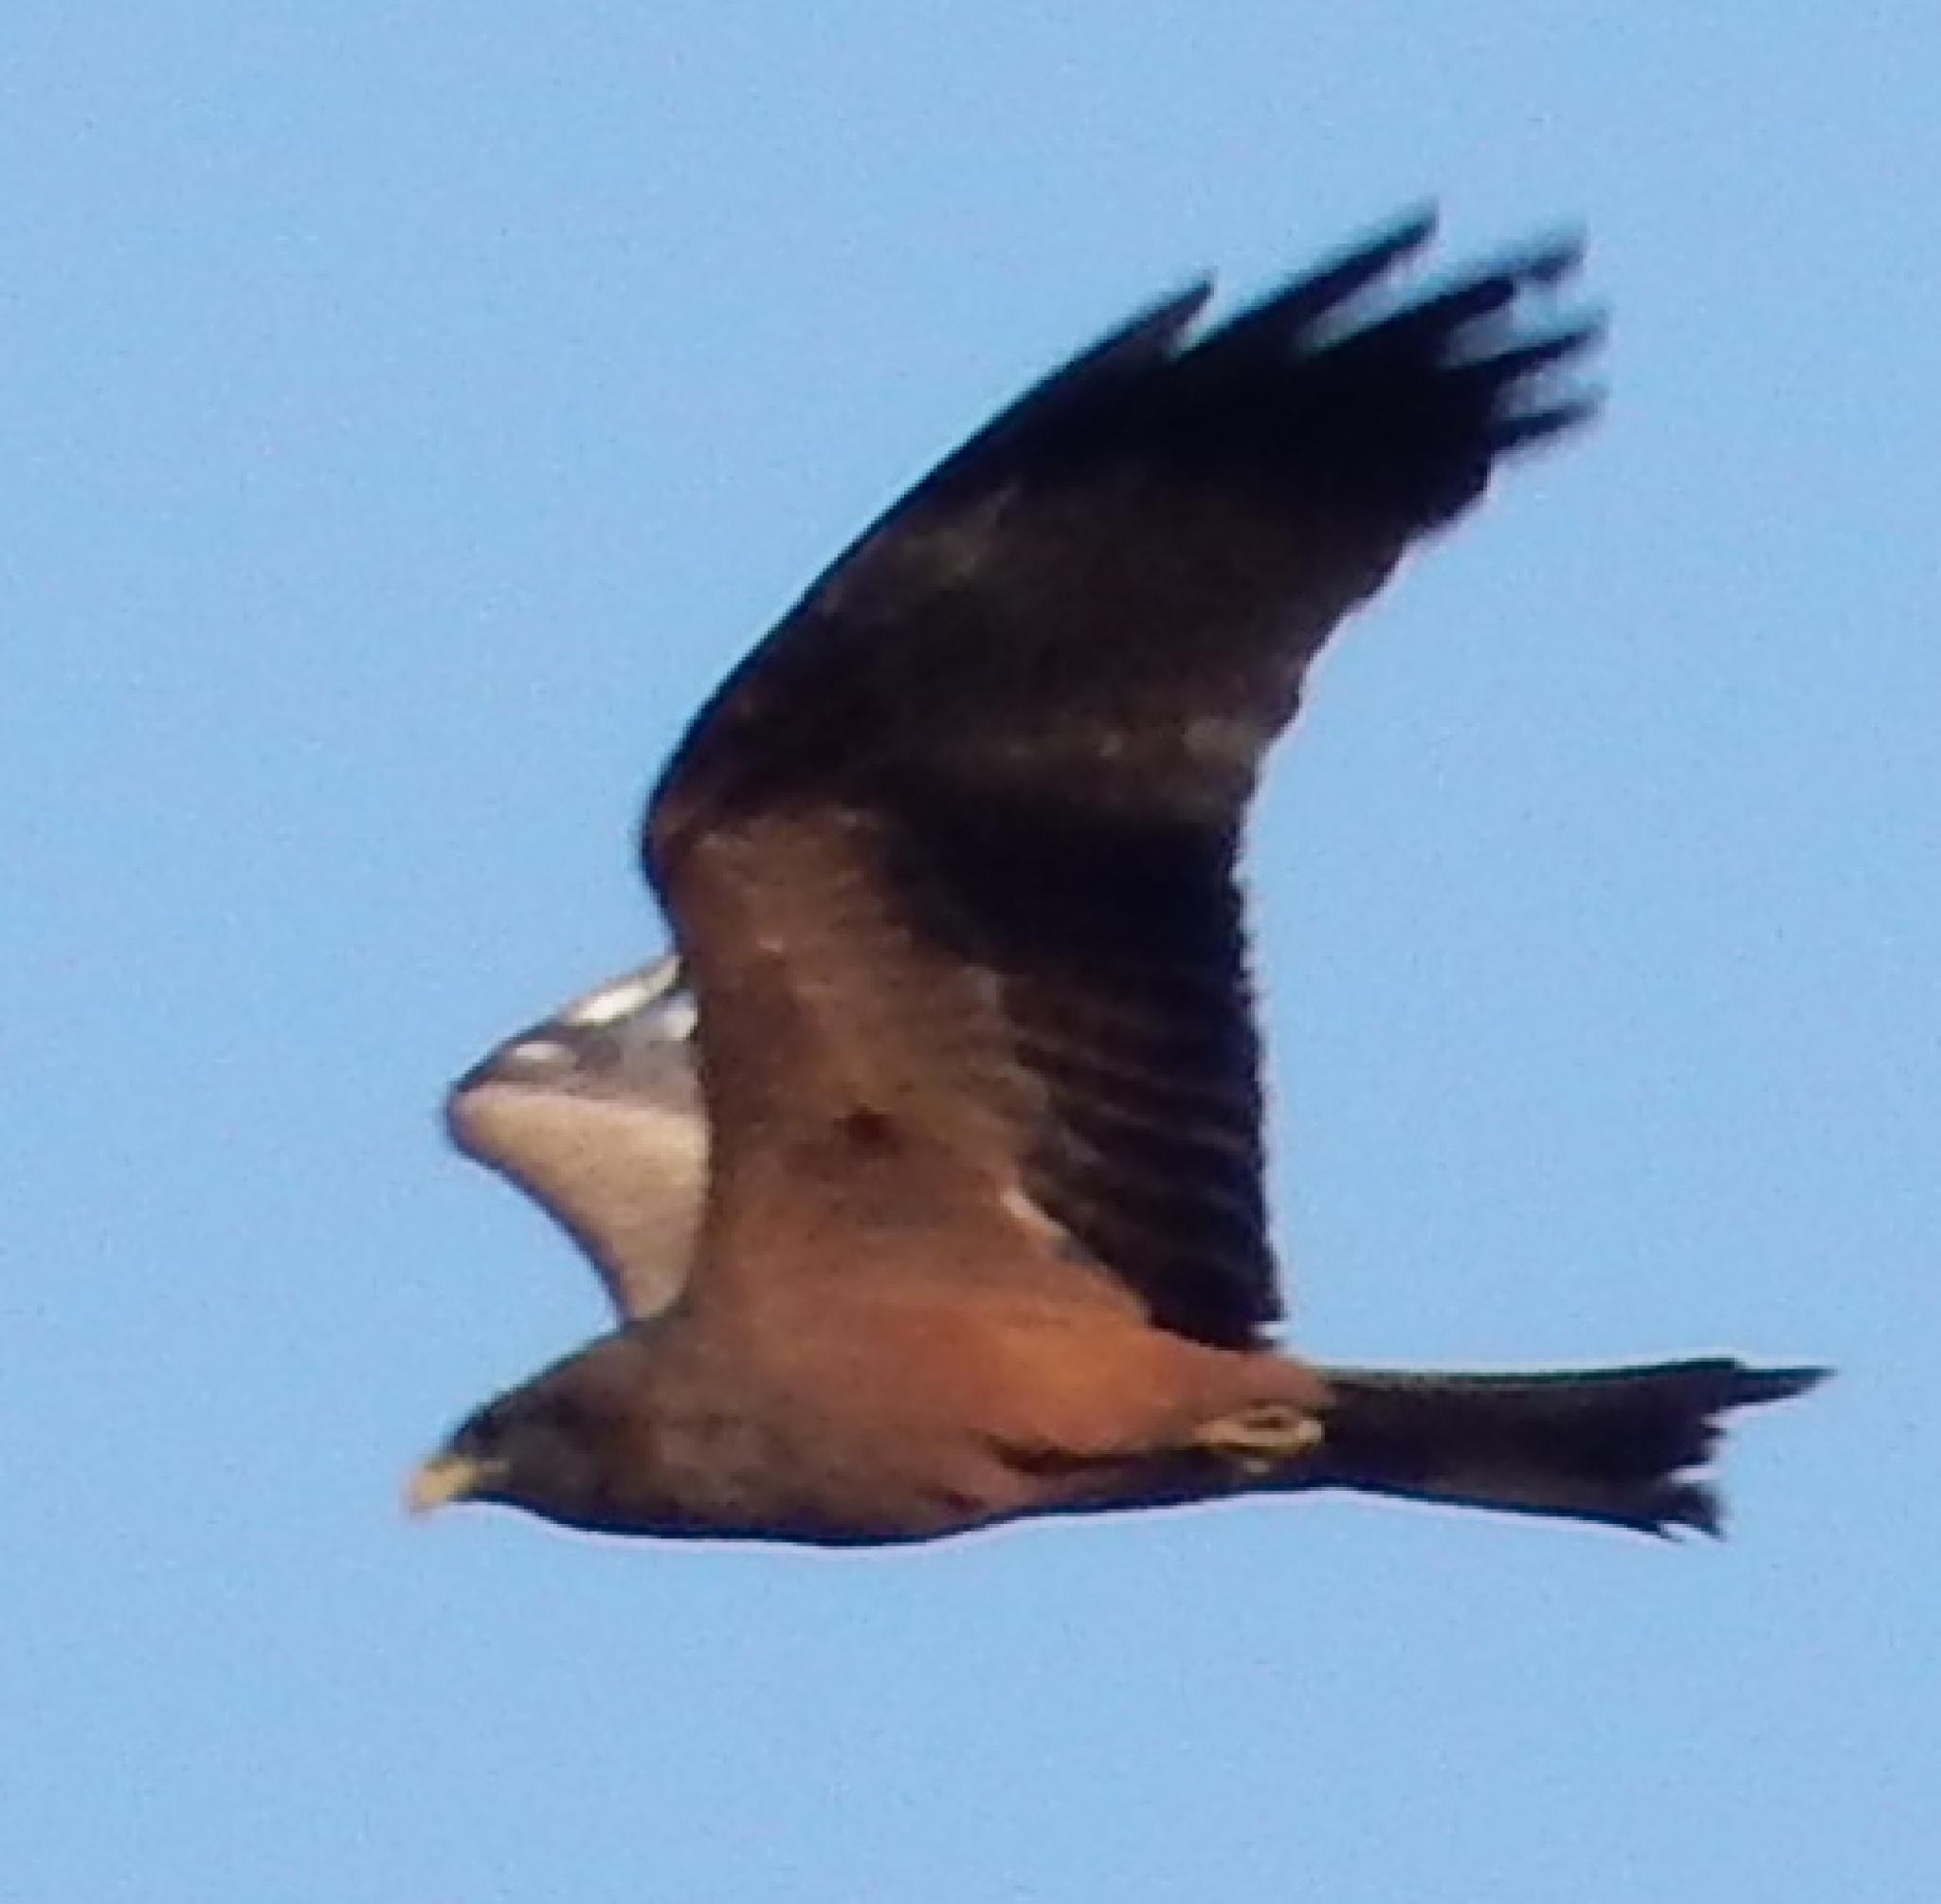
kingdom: Animalia
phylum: Chordata
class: Aves
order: Accipitriformes
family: Accipitridae
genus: Milvus
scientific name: Milvus migrans
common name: Black kite
